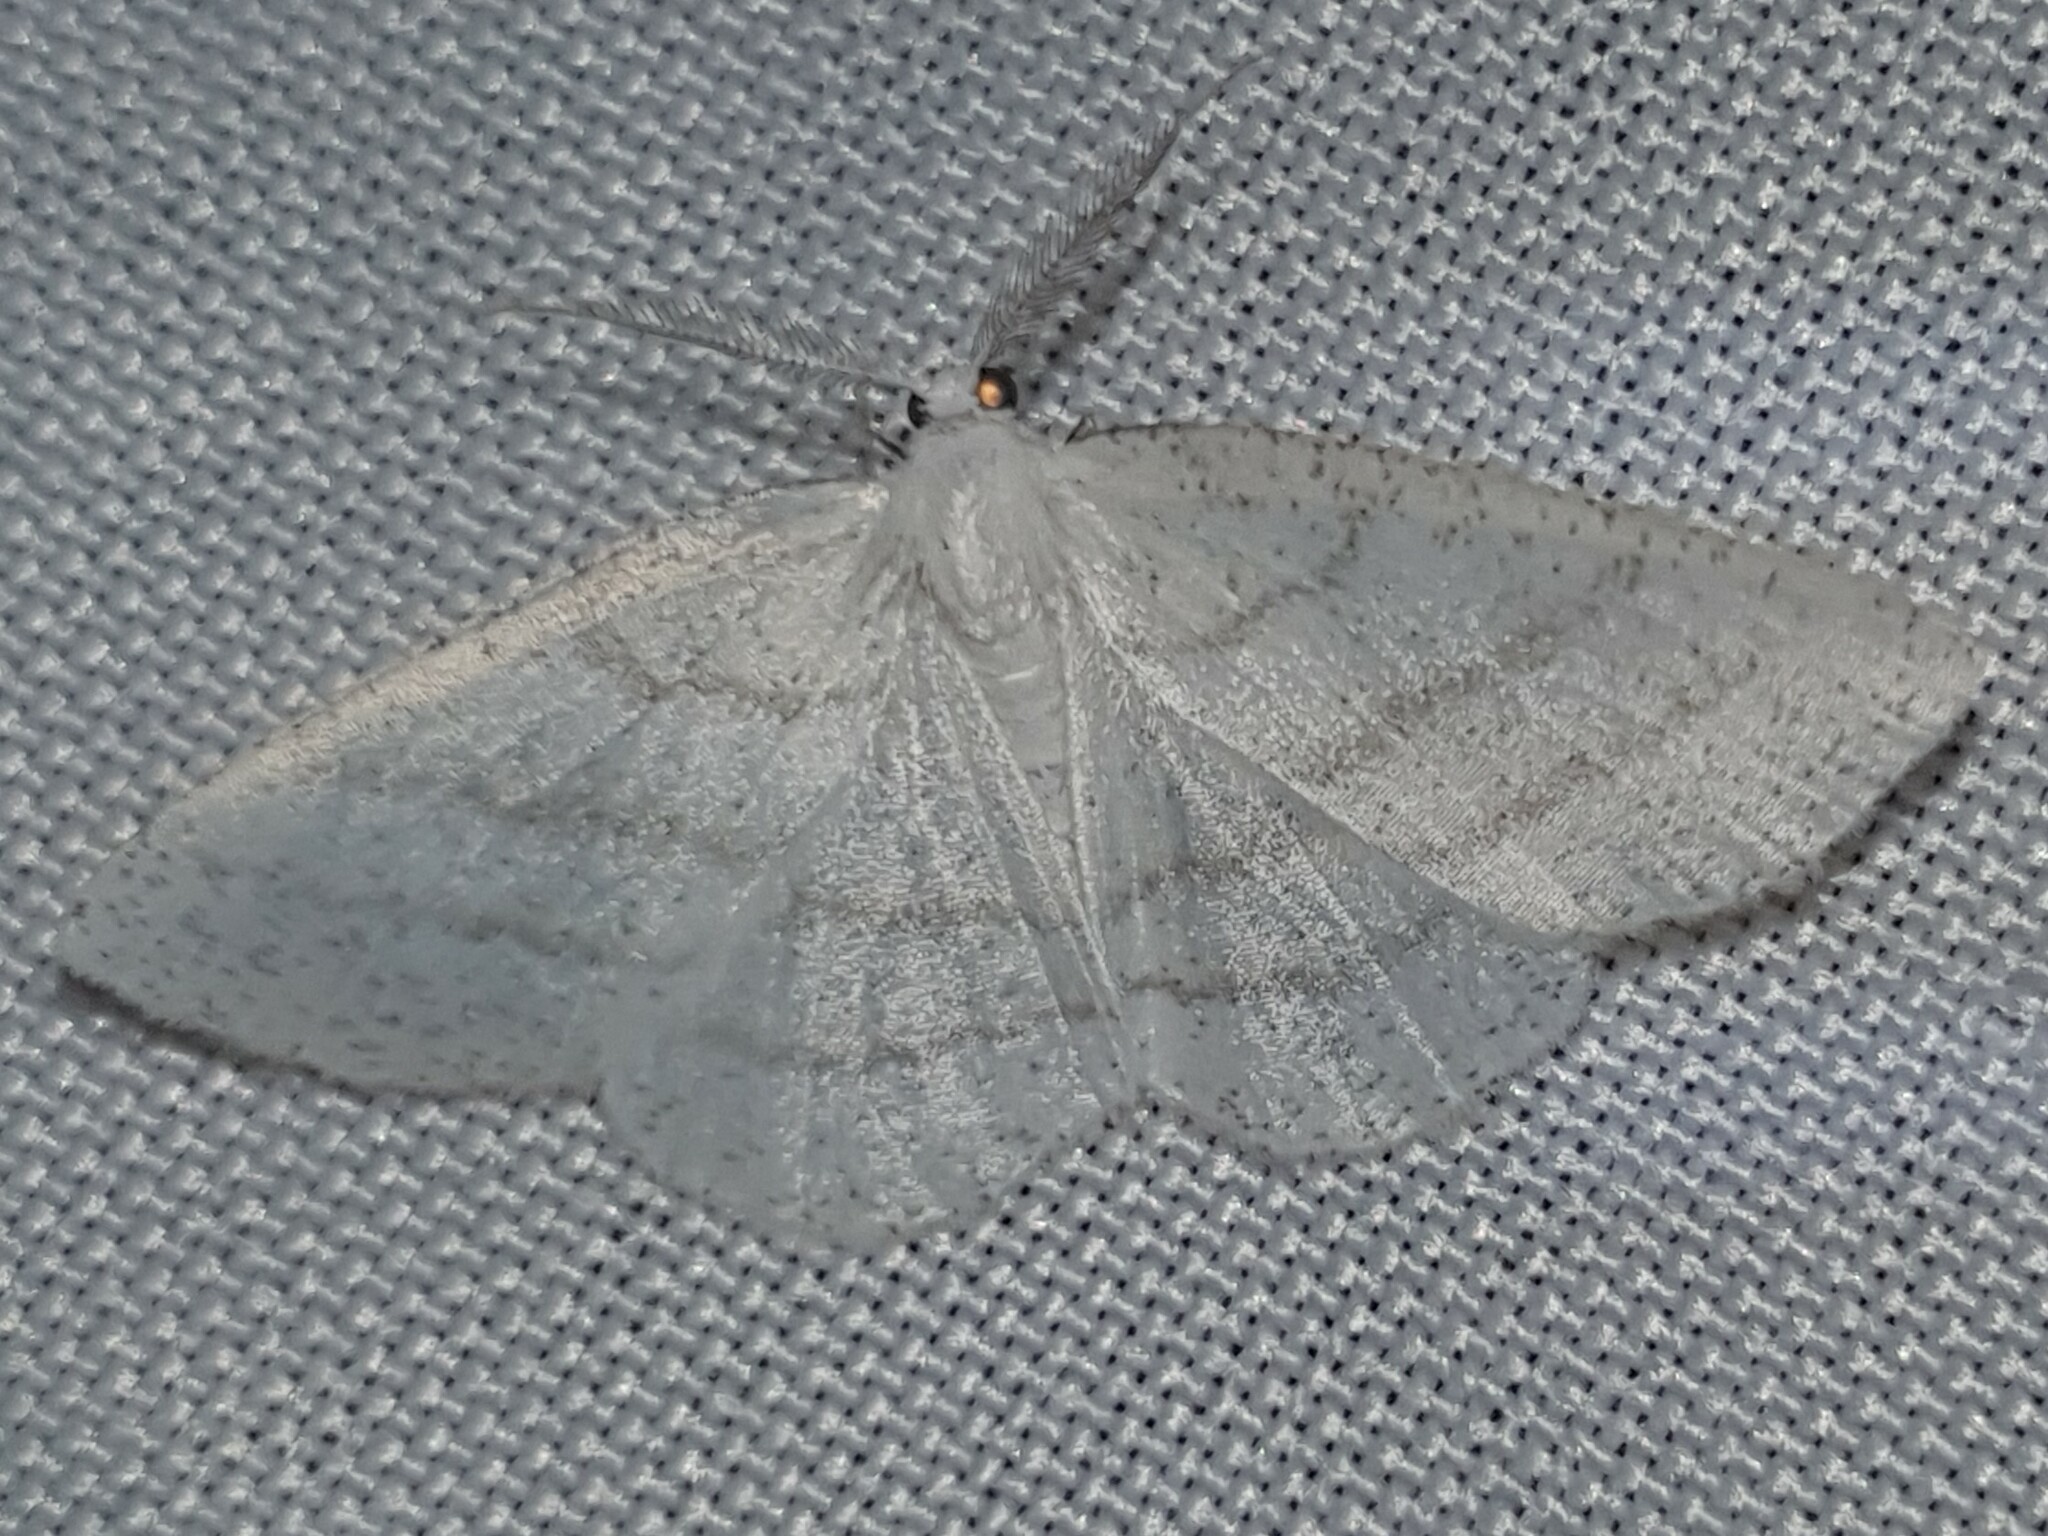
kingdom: Animalia
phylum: Arthropoda
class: Insecta
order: Lepidoptera
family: Geometridae
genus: Cabera
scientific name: Cabera pusaria
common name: Common white wave
